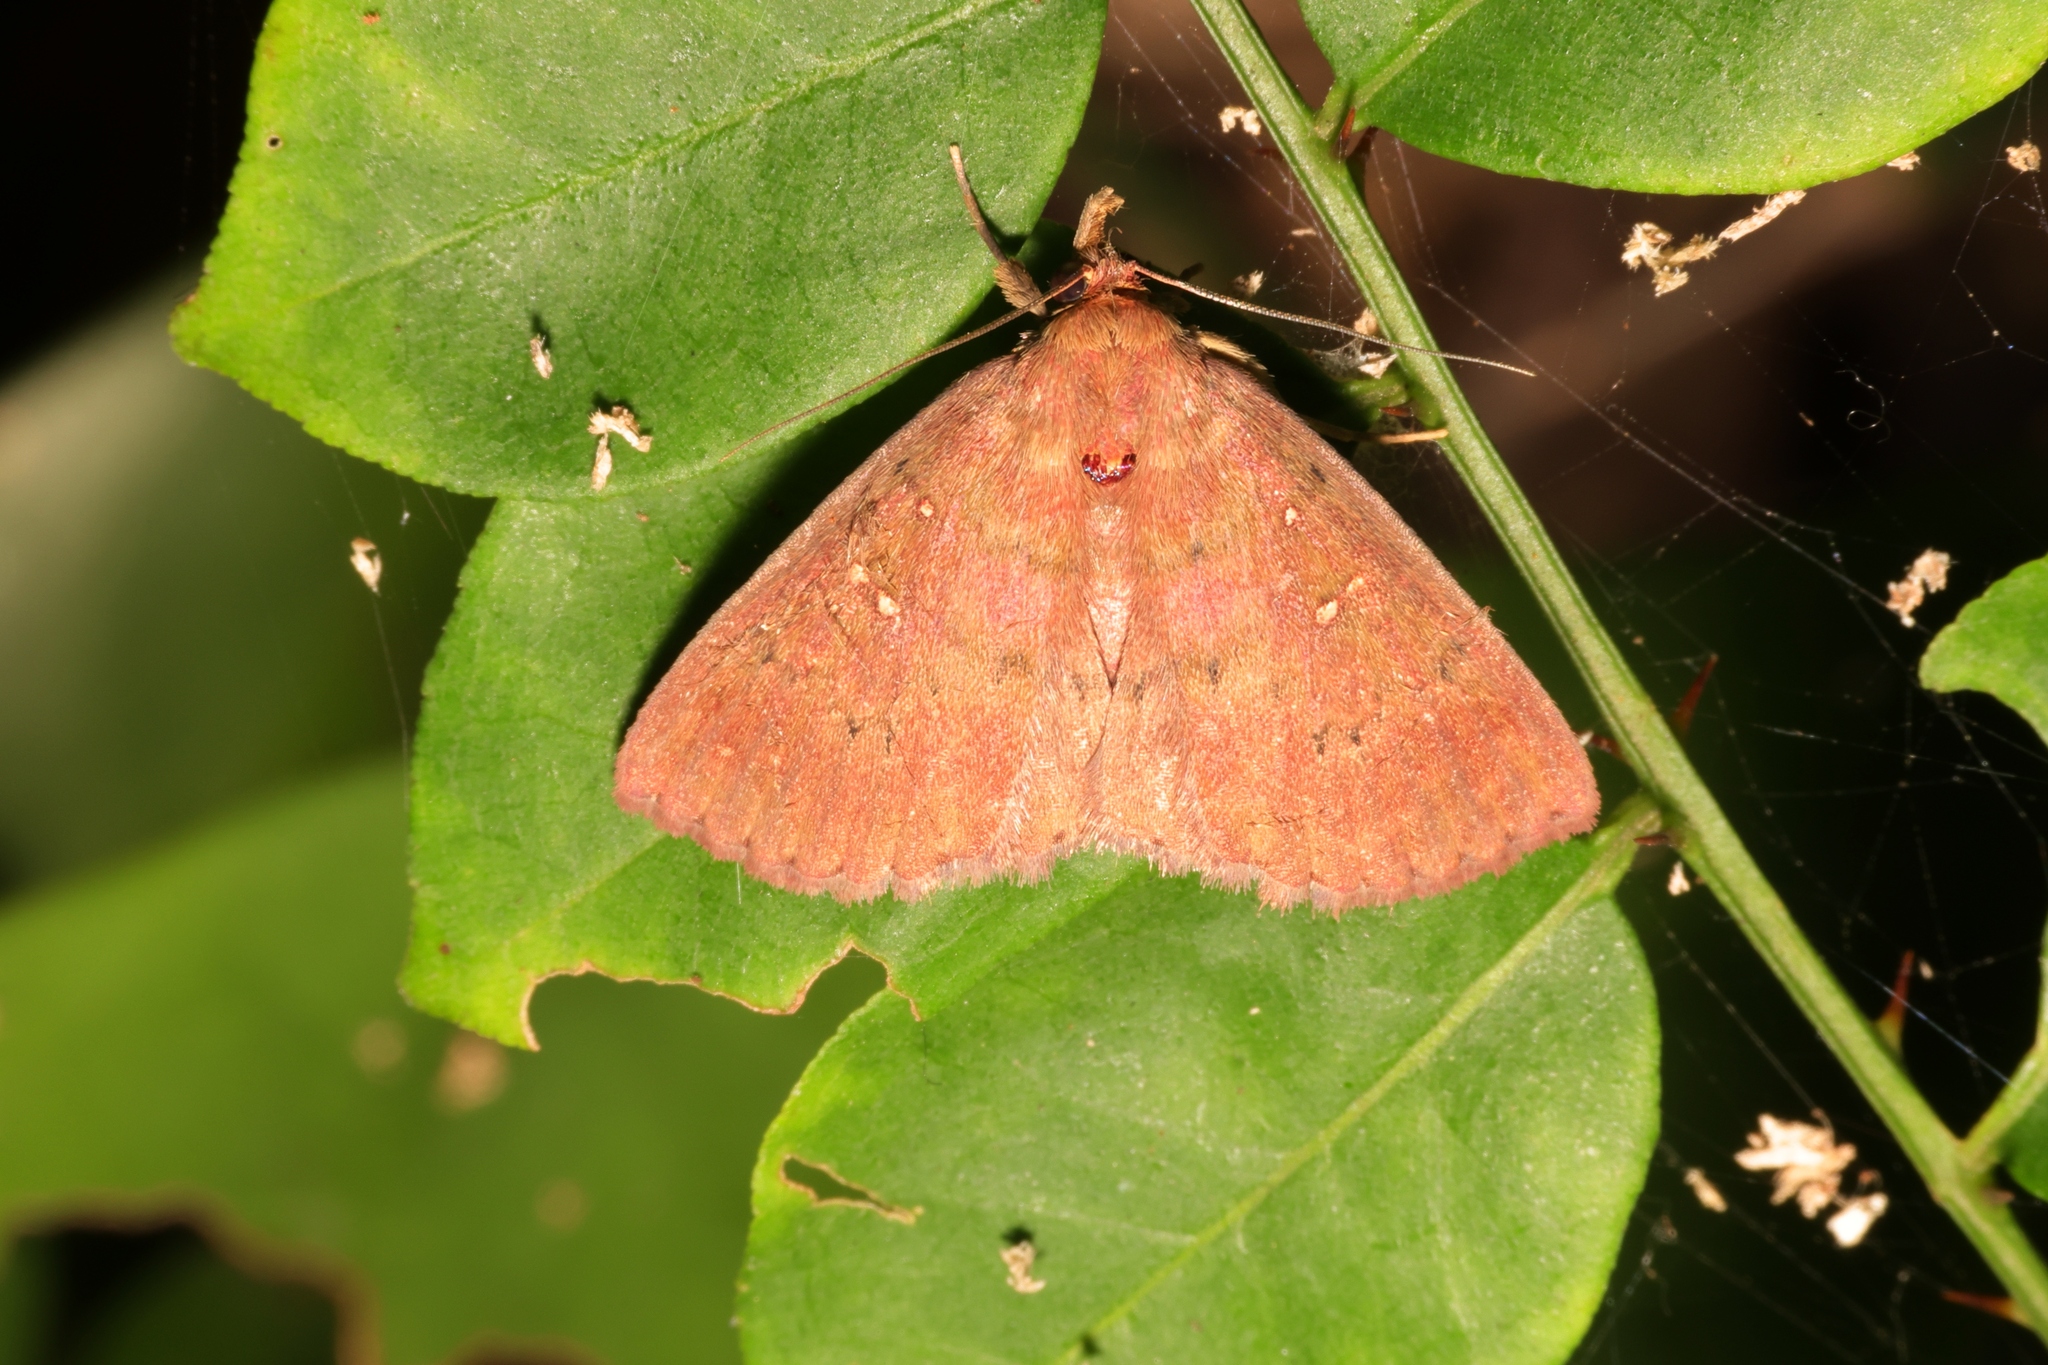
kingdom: Animalia
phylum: Arthropoda
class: Insecta
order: Lepidoptera
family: Erebidae
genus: Sarobides
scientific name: Sarobides inconclusa
